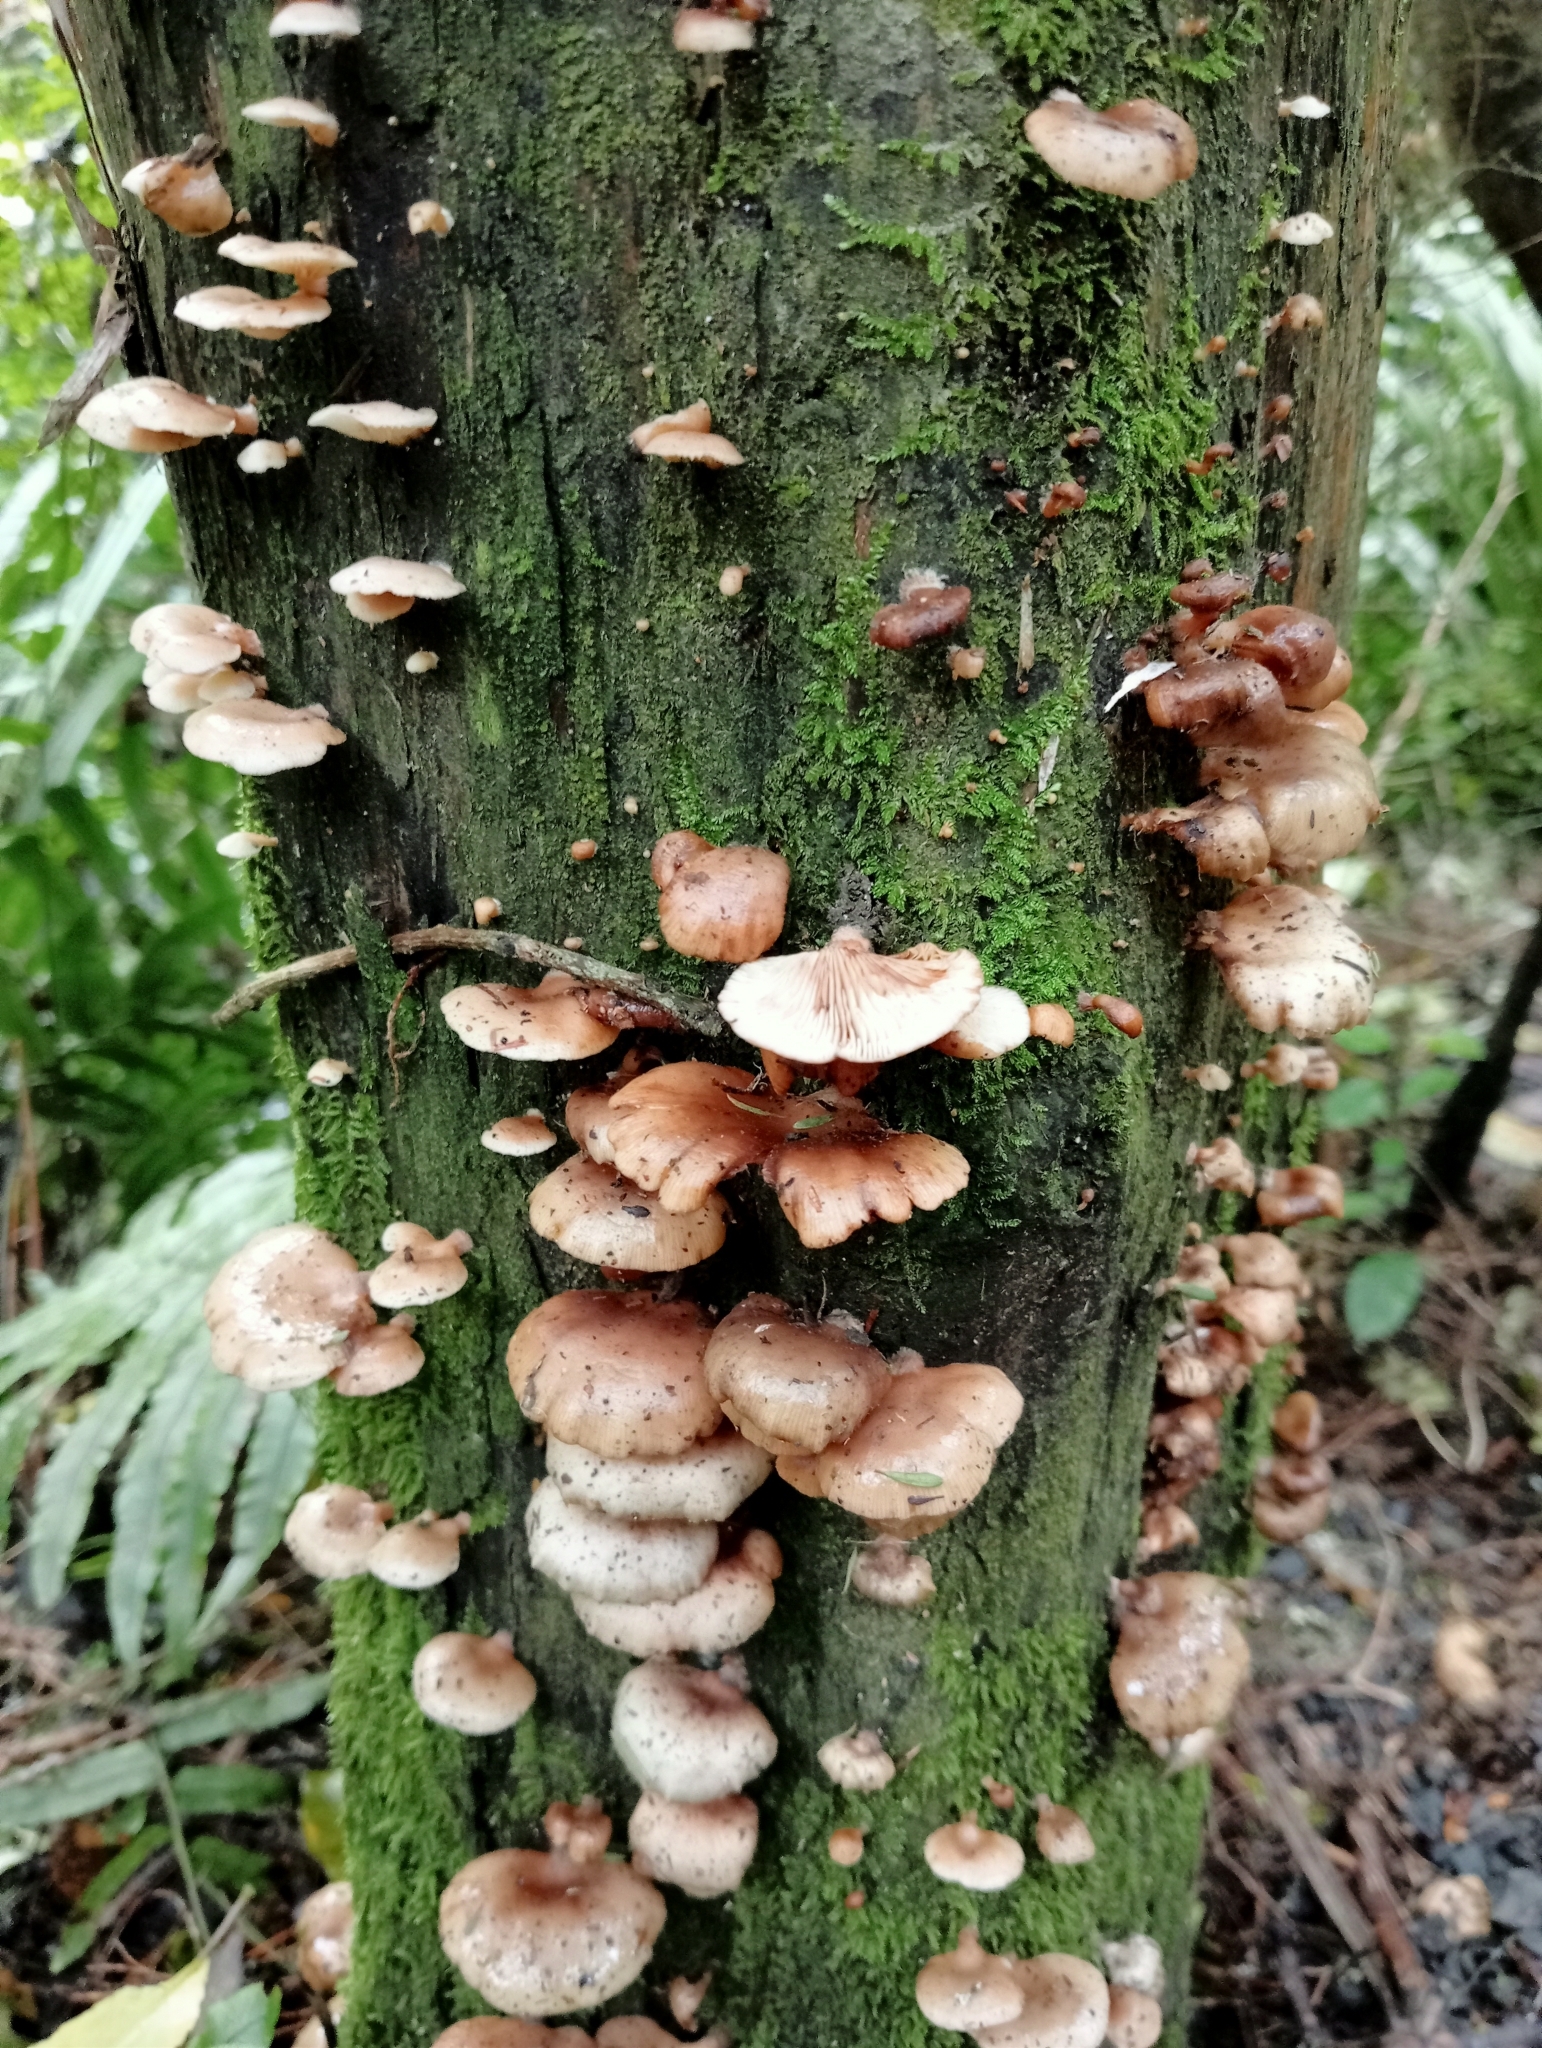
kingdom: Fungi
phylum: Basidiomycota
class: Agaricomycetes
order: Agaricales
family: Mycenaceae
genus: Panellus
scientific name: Panellus longinquus
